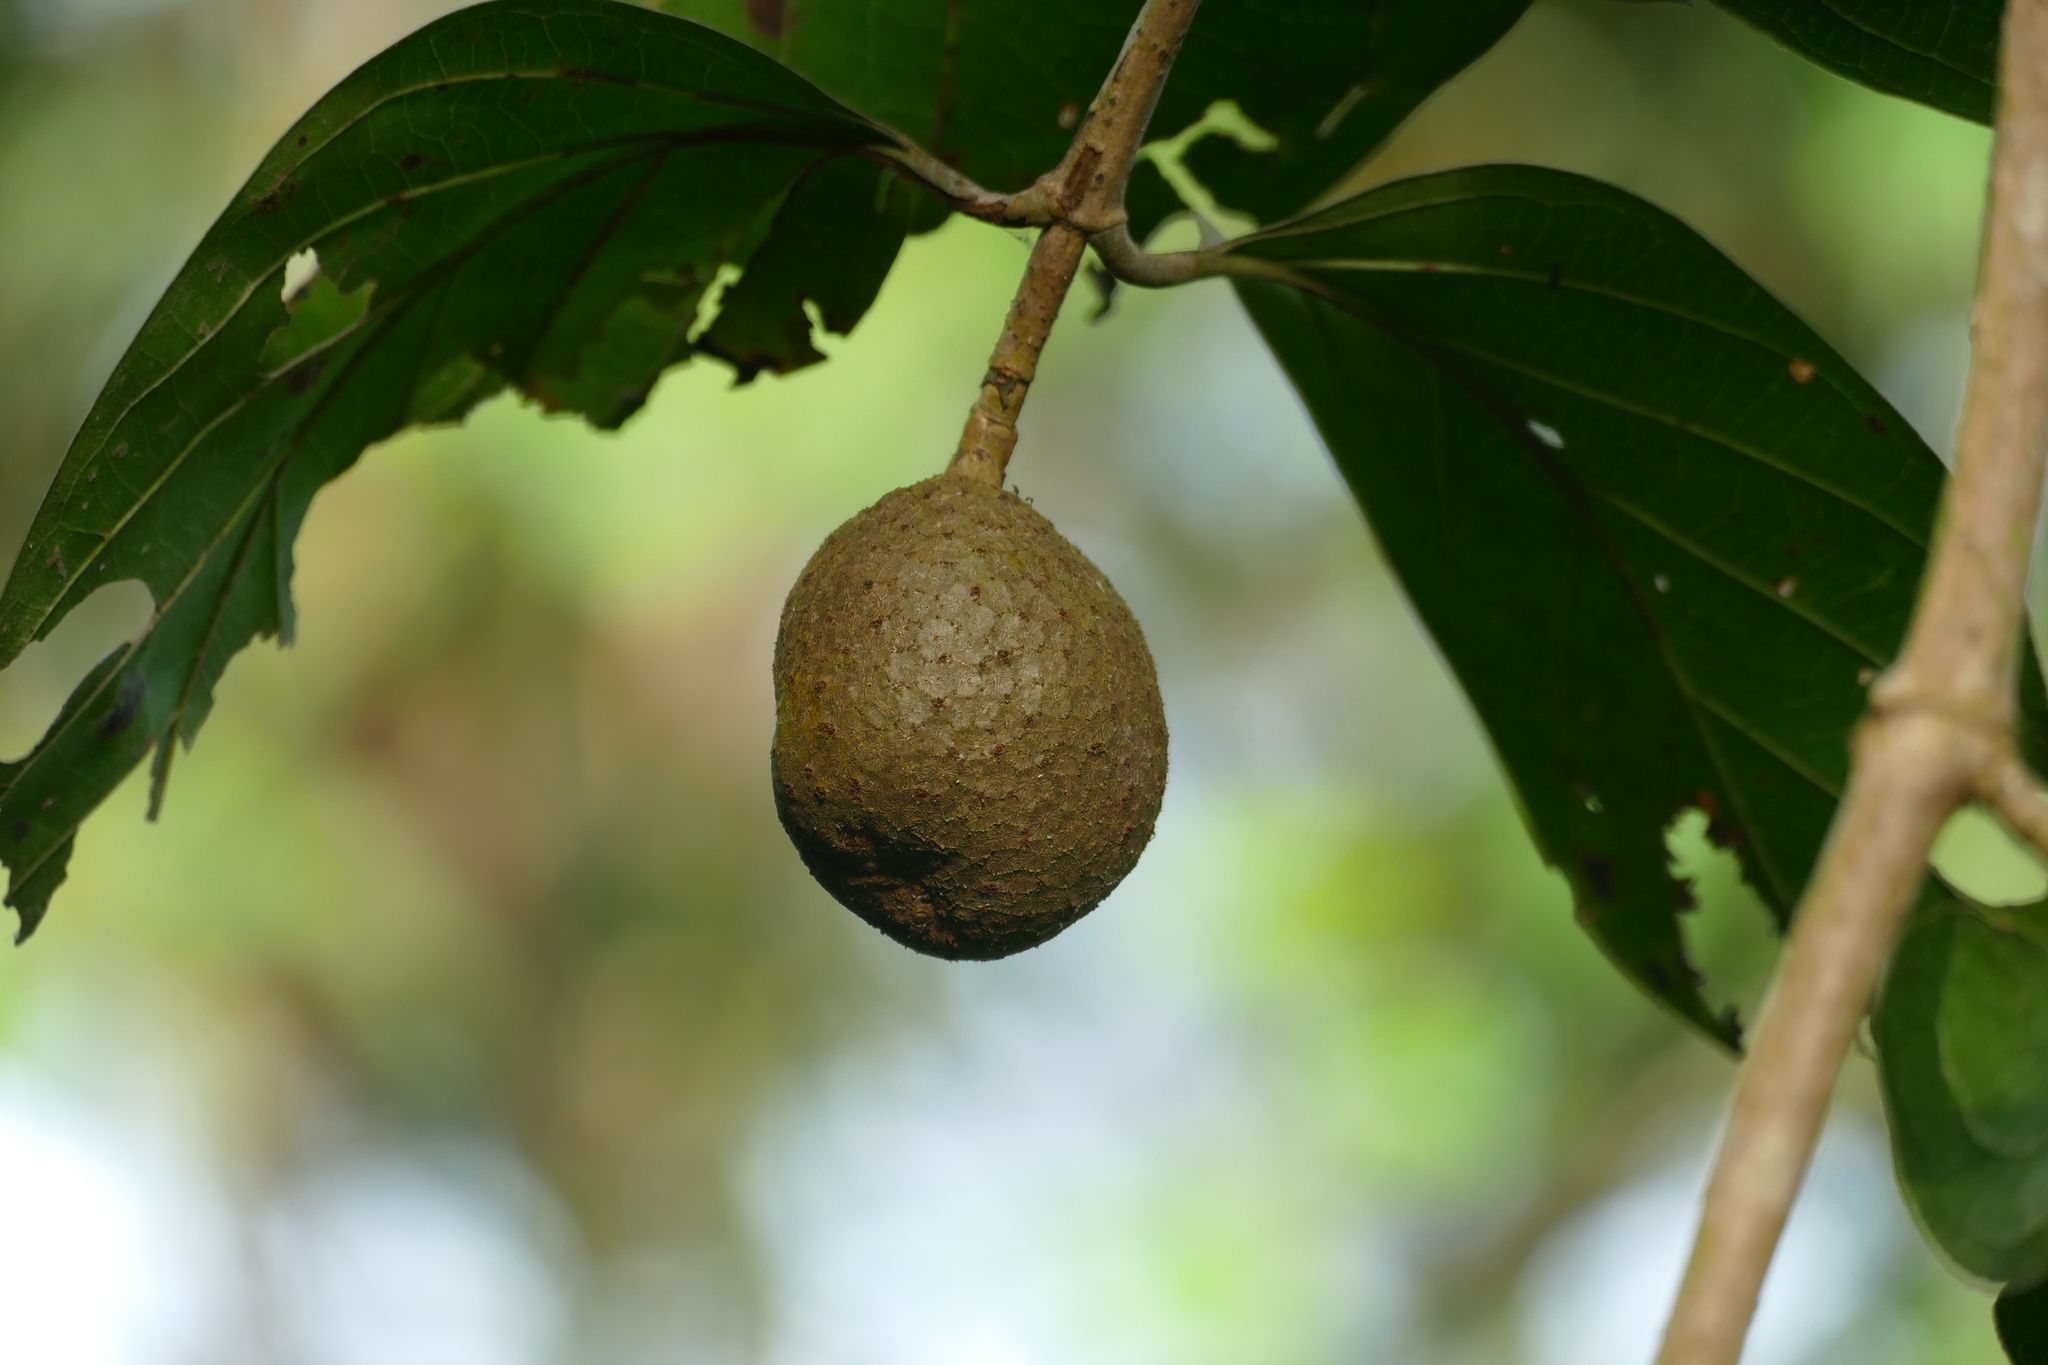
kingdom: Plantae
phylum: Tracheophyta
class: Magnoliopsida
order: Gentianales
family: Rubiaceae
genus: Nauclea
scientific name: Nauclea latifolia
